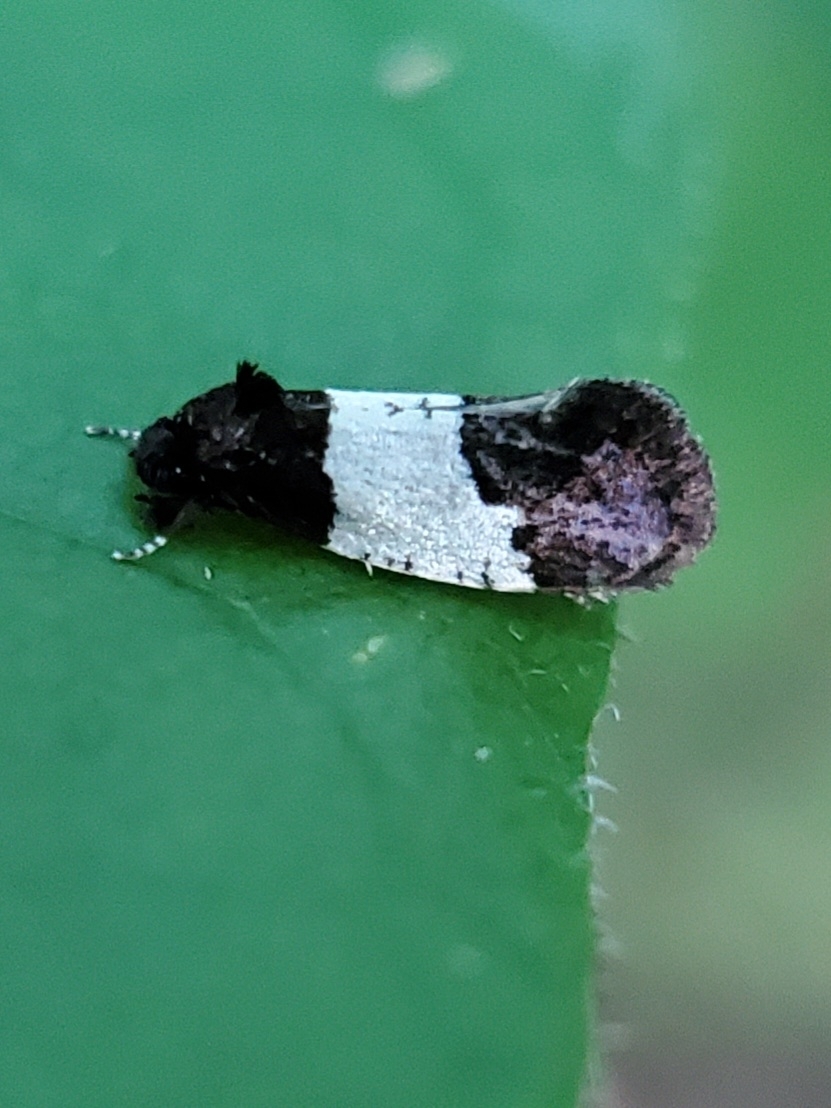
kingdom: Animalia
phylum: Arthropoda
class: Insecta
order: Lepidoptera
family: Psychidae
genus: Kearfottia
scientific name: Kearfottia albifasciella
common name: White-patched kearfottia
